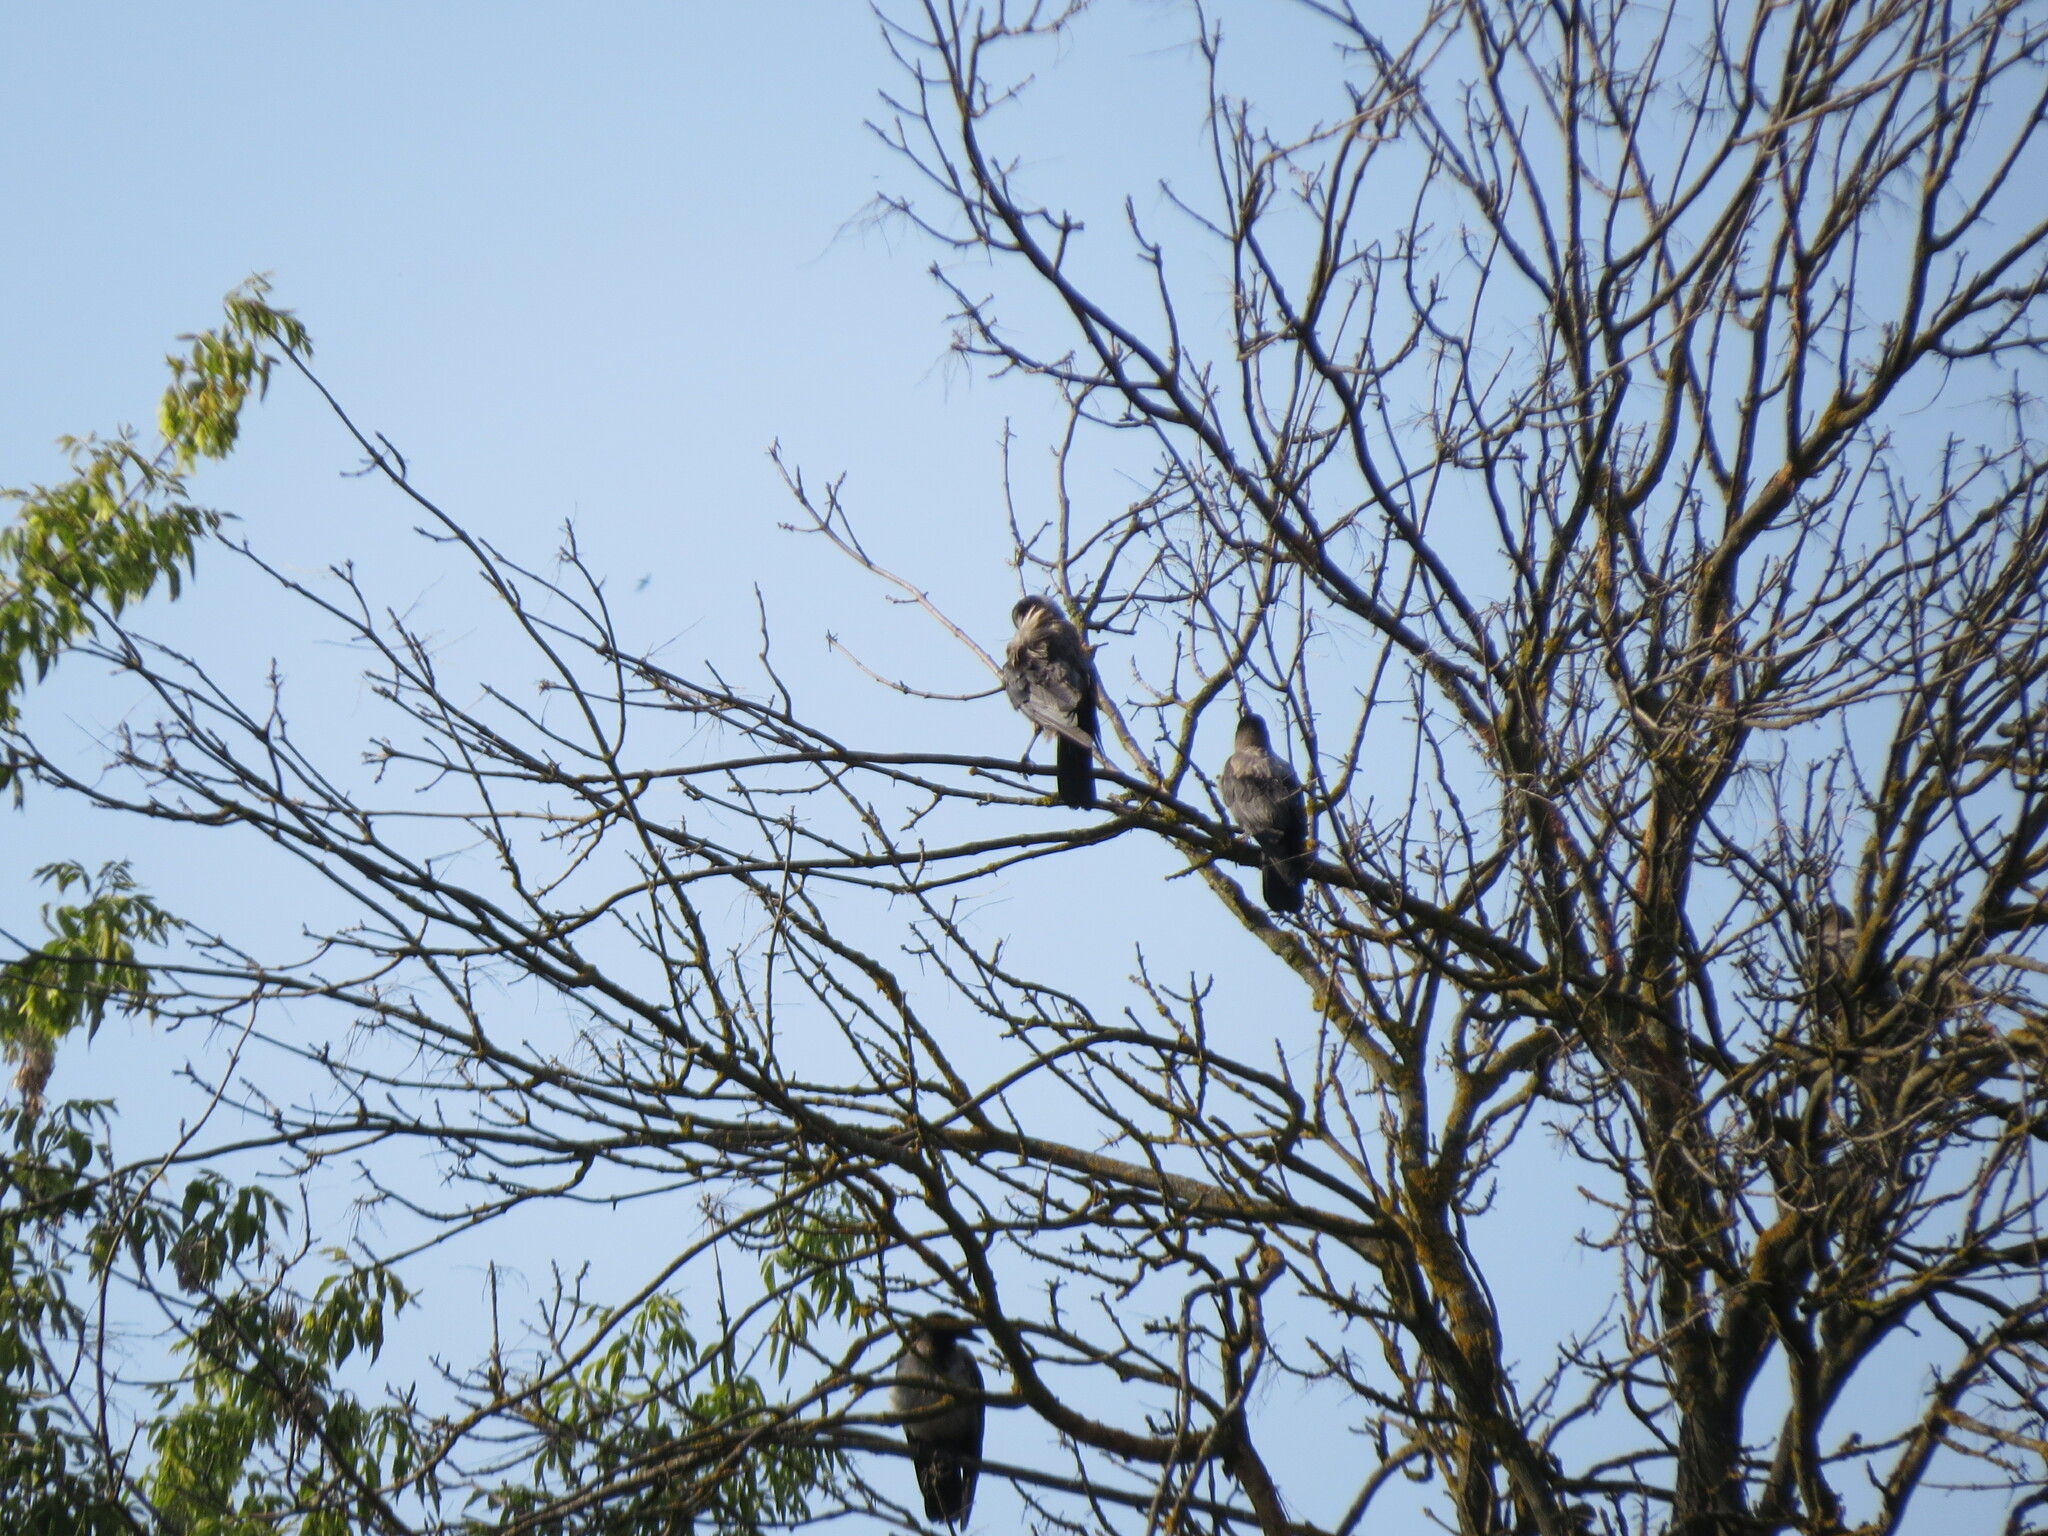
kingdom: Animalia
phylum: Chordata
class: Aves
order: Passeriformes
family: Corvidae
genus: Corvus
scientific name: Corvus cornix
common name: Hooded crow
